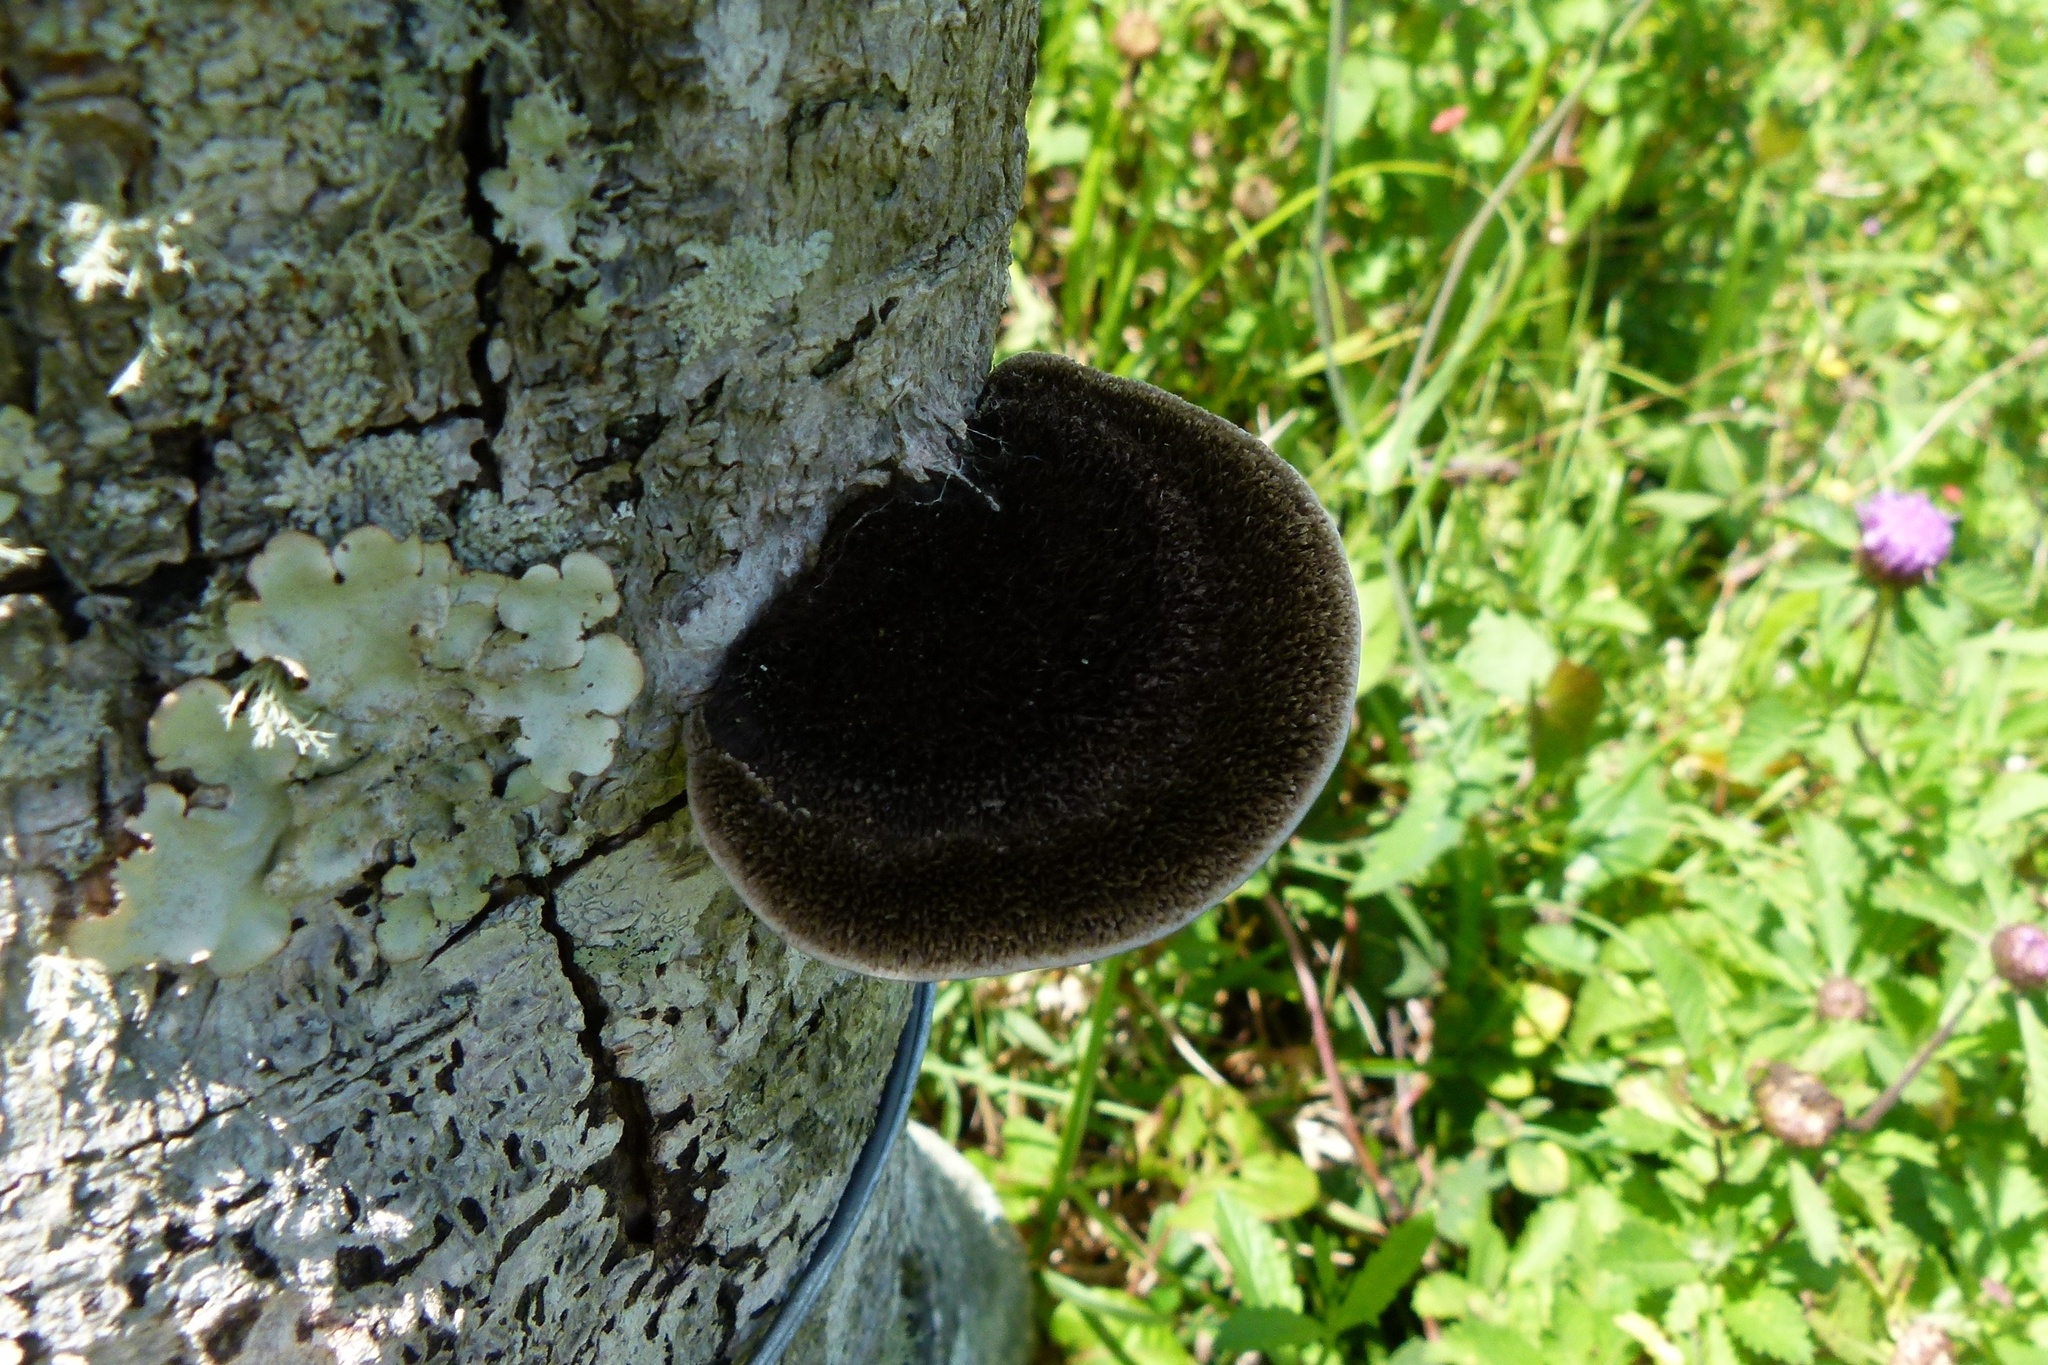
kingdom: Fungi
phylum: Basidiomycota
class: Agaricomycetes
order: Polyporales
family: Cerrenaceae
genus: Cerrena
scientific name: Cerrena hydnoides
